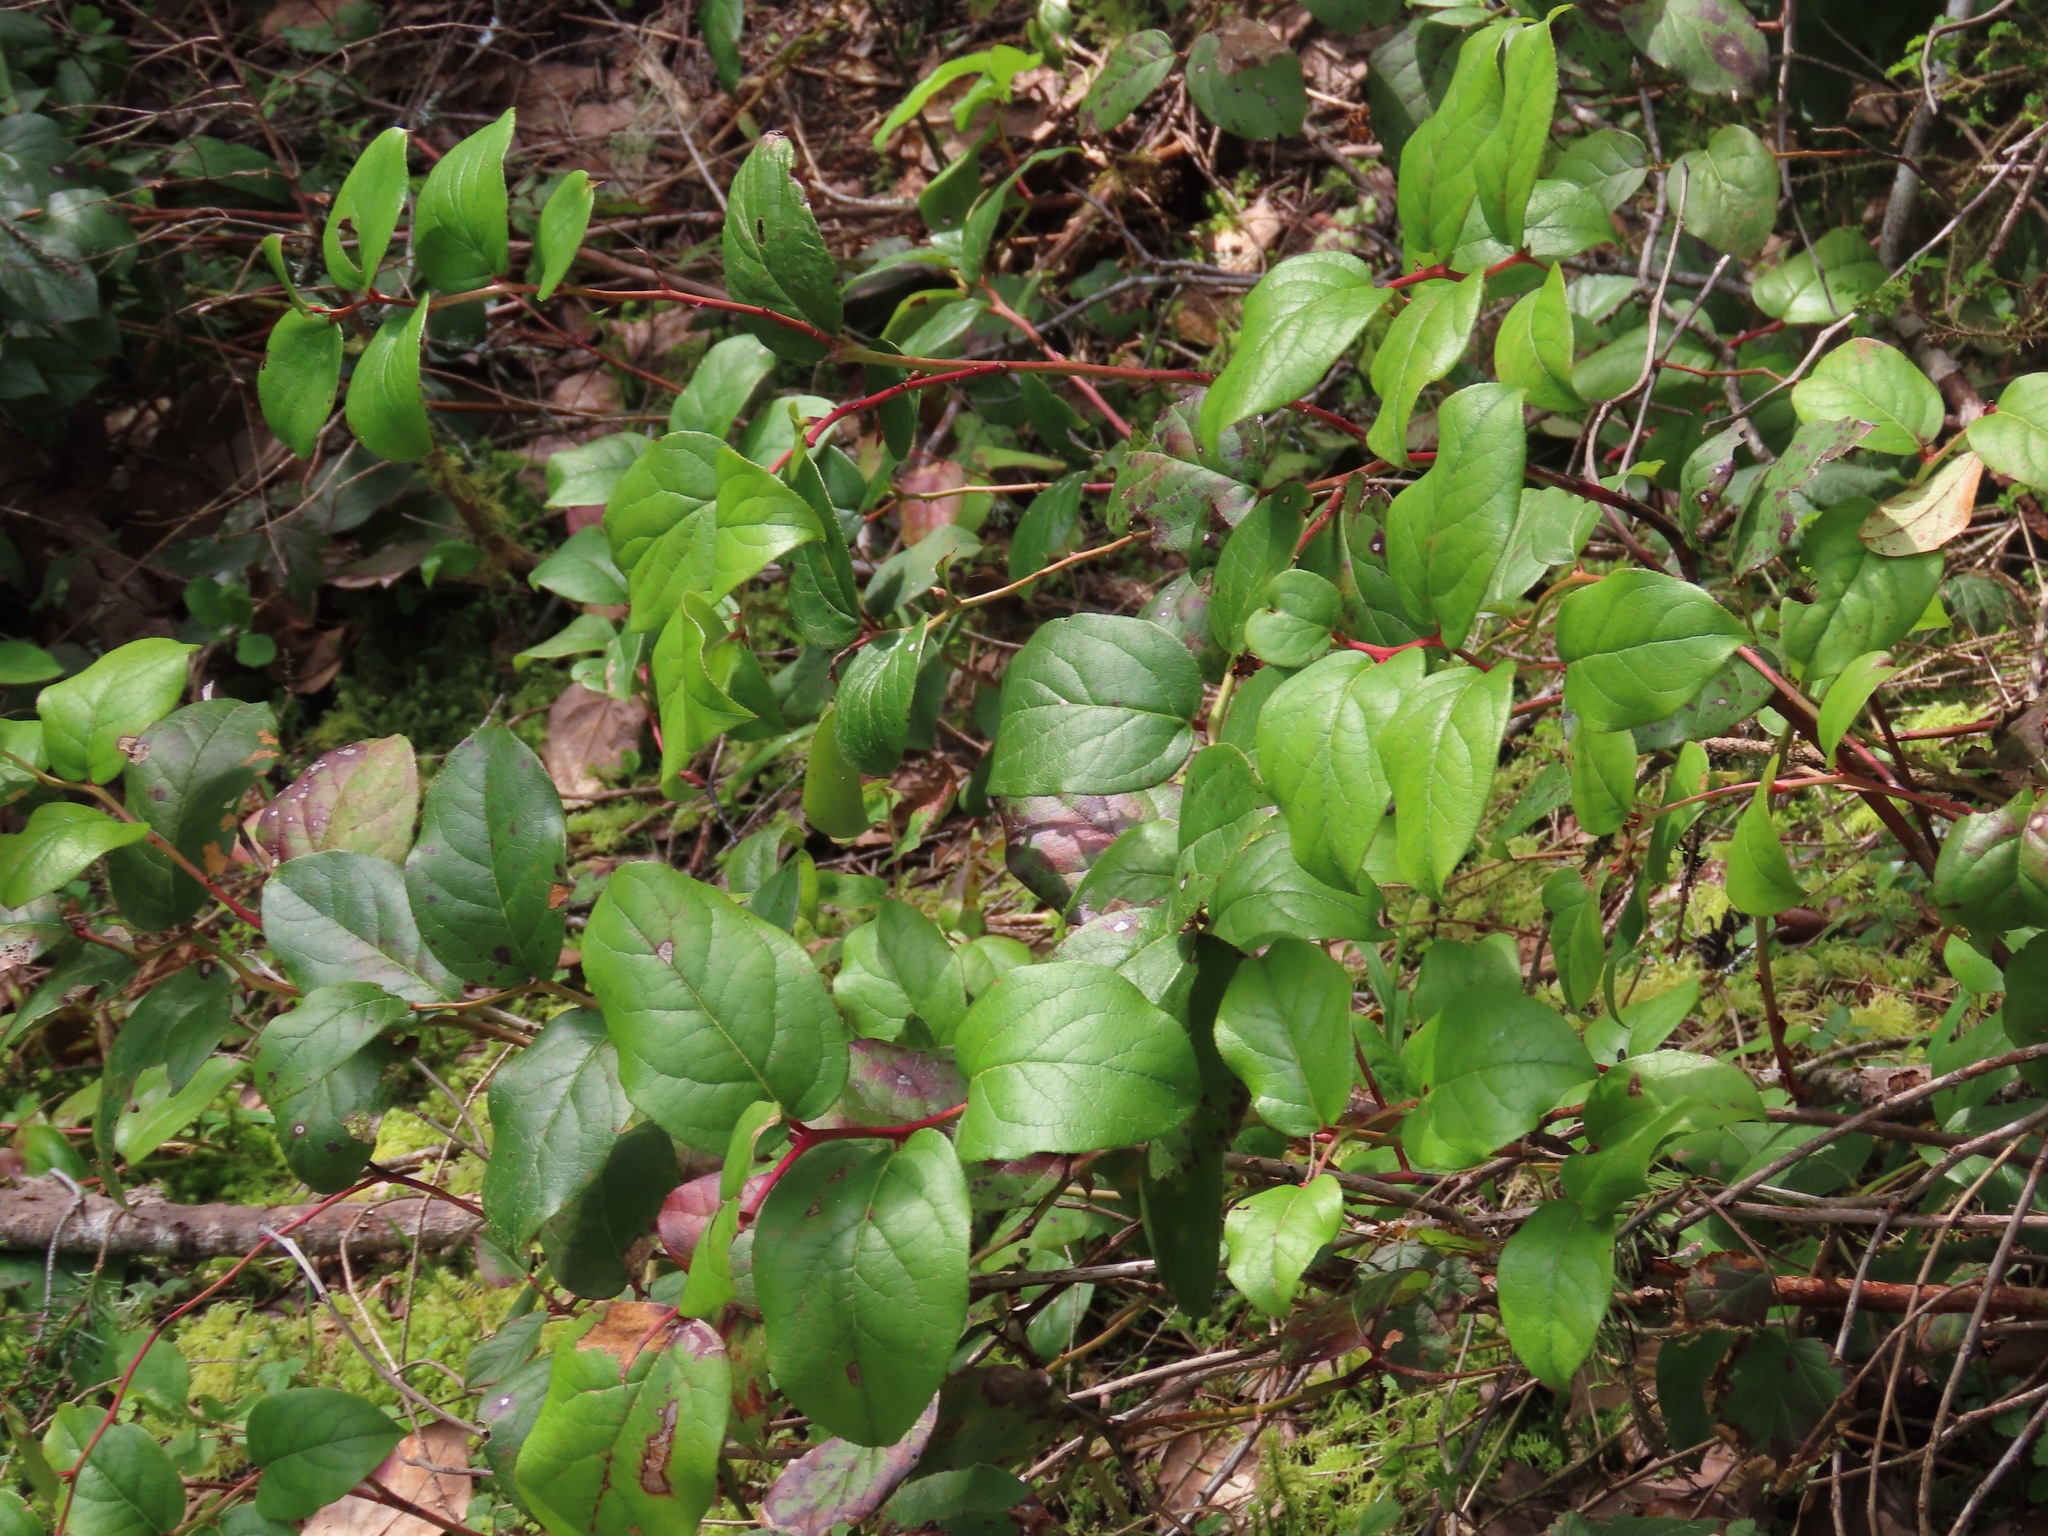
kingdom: Plantae
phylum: Tracheophyta
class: Magnoliopsida
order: Ericales
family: Ericaceae
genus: Gaultheria
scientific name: Gaultheria shallon
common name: Shallon
